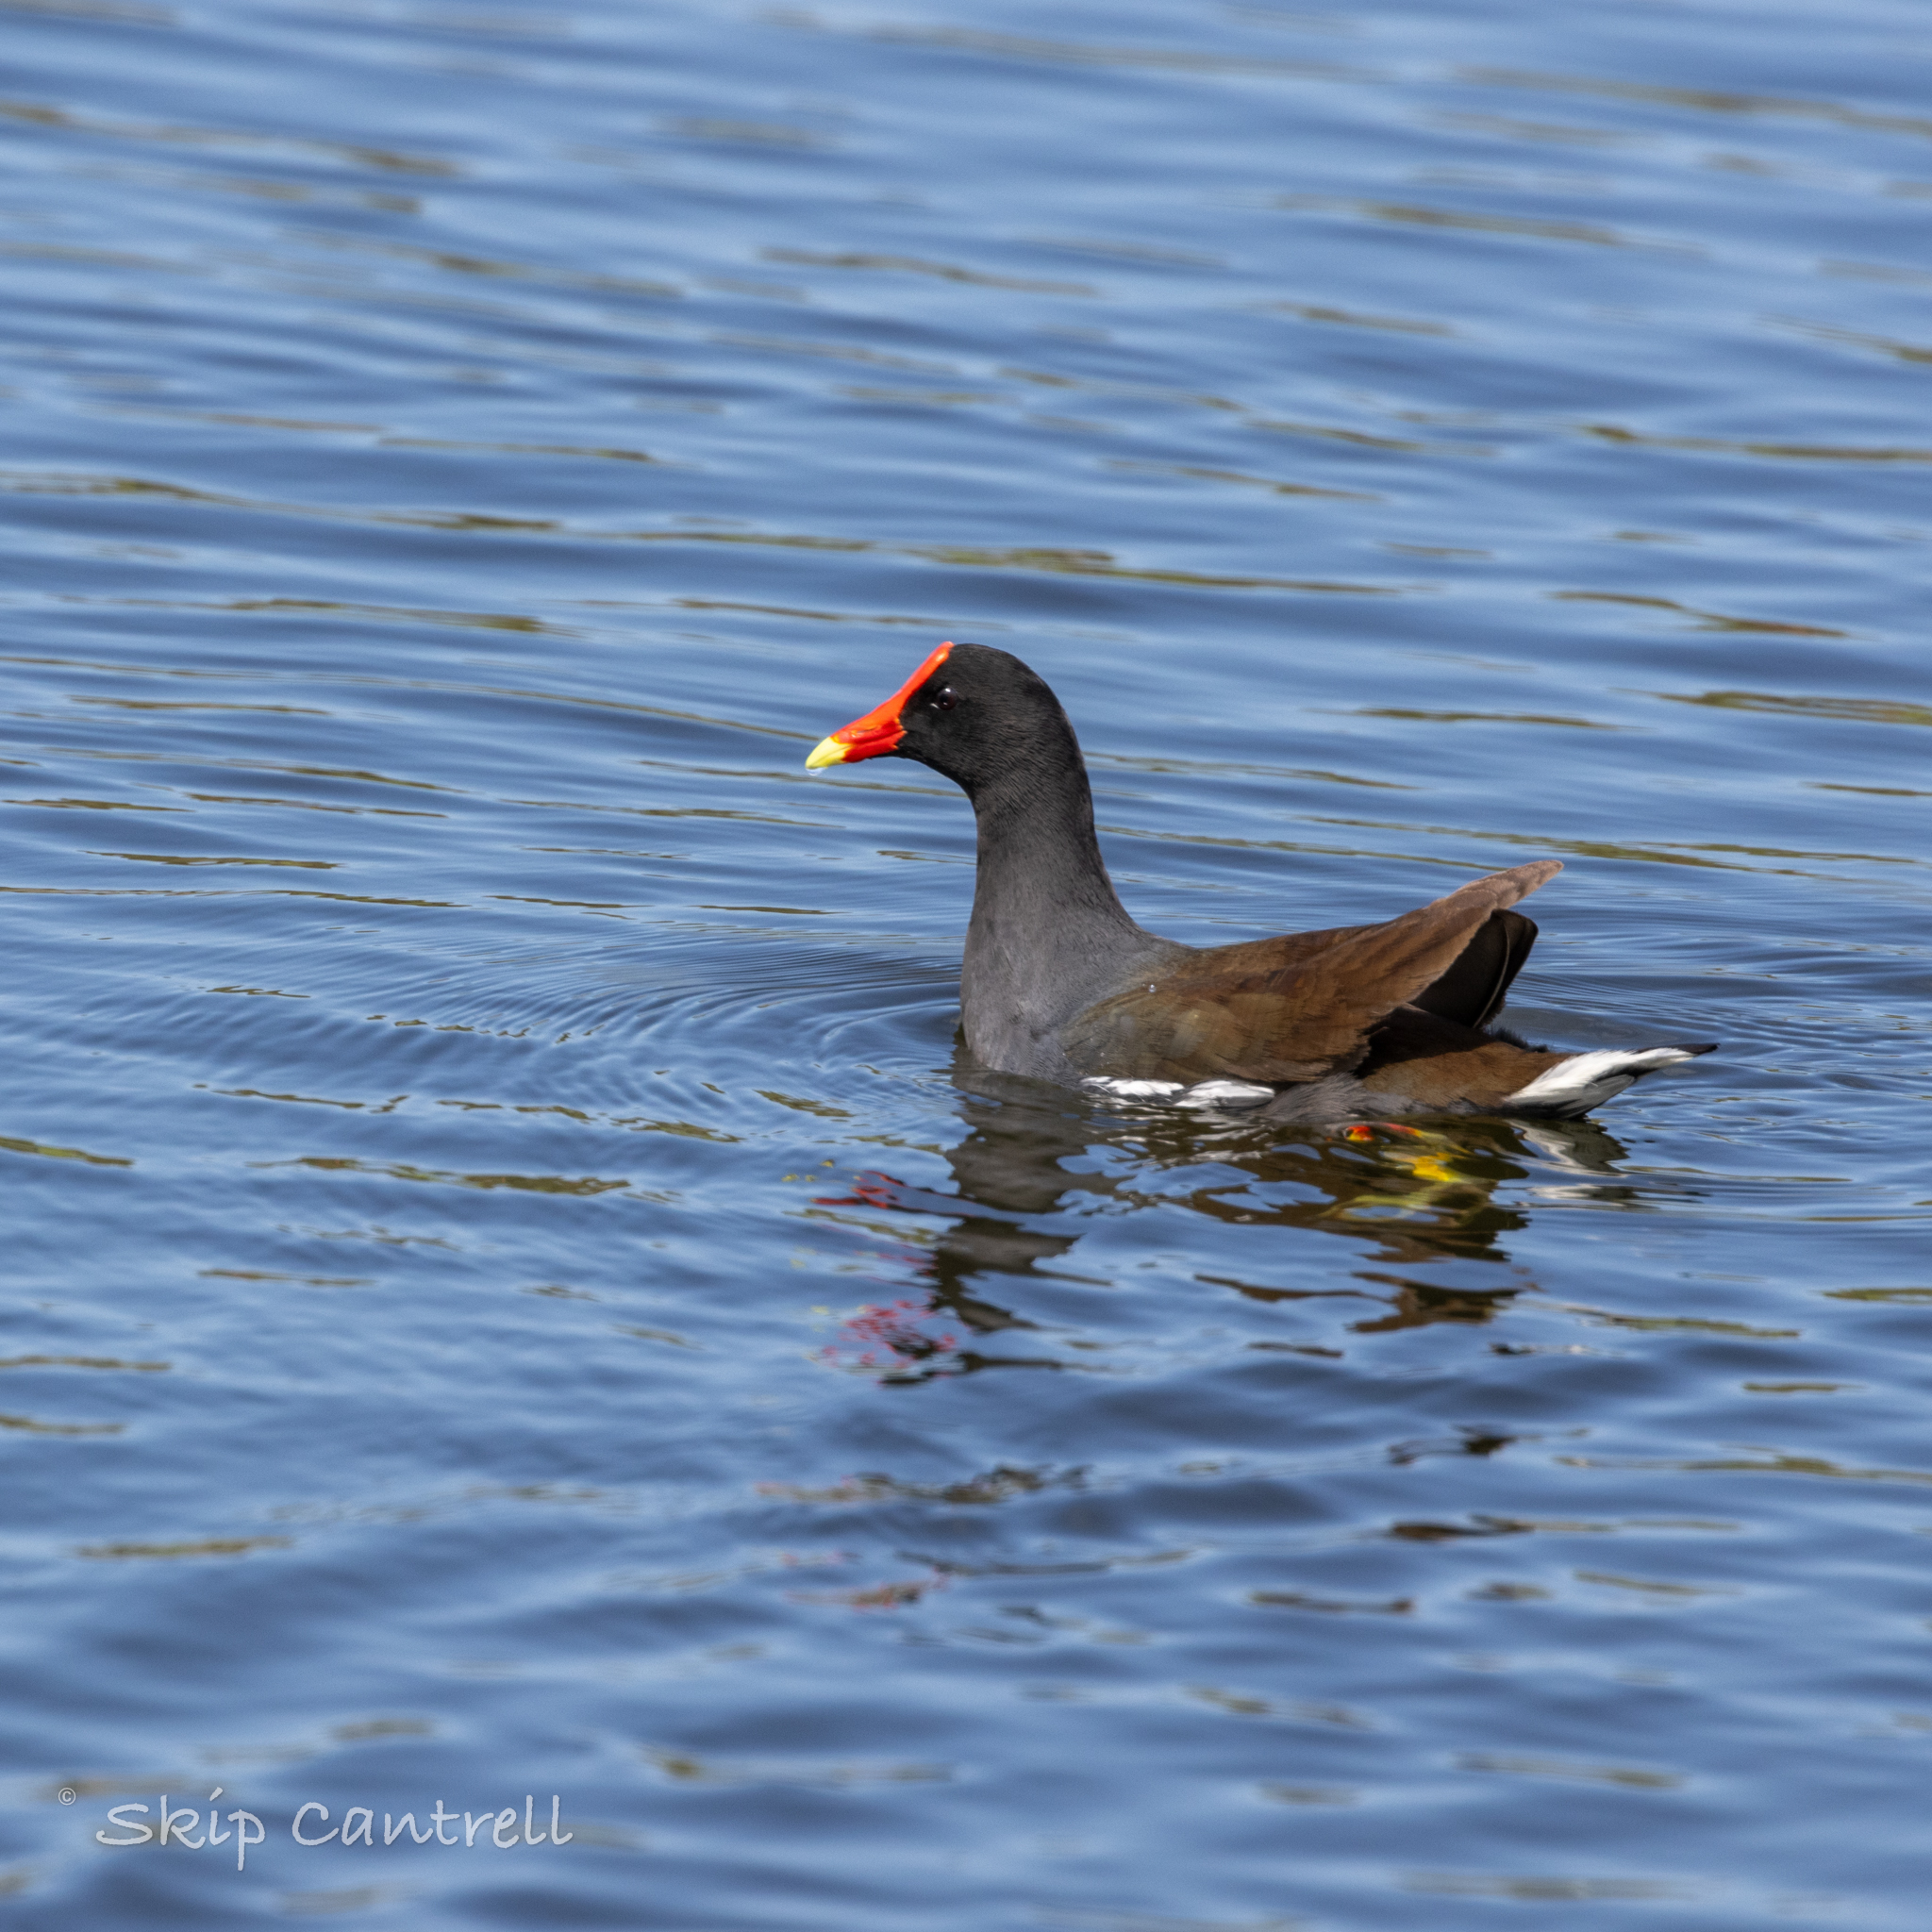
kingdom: Animalia
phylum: Chordata
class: Aves
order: Gruiformes
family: Rallidae
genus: Gallinula
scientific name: Gallinula chloropus
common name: Common moorhen
